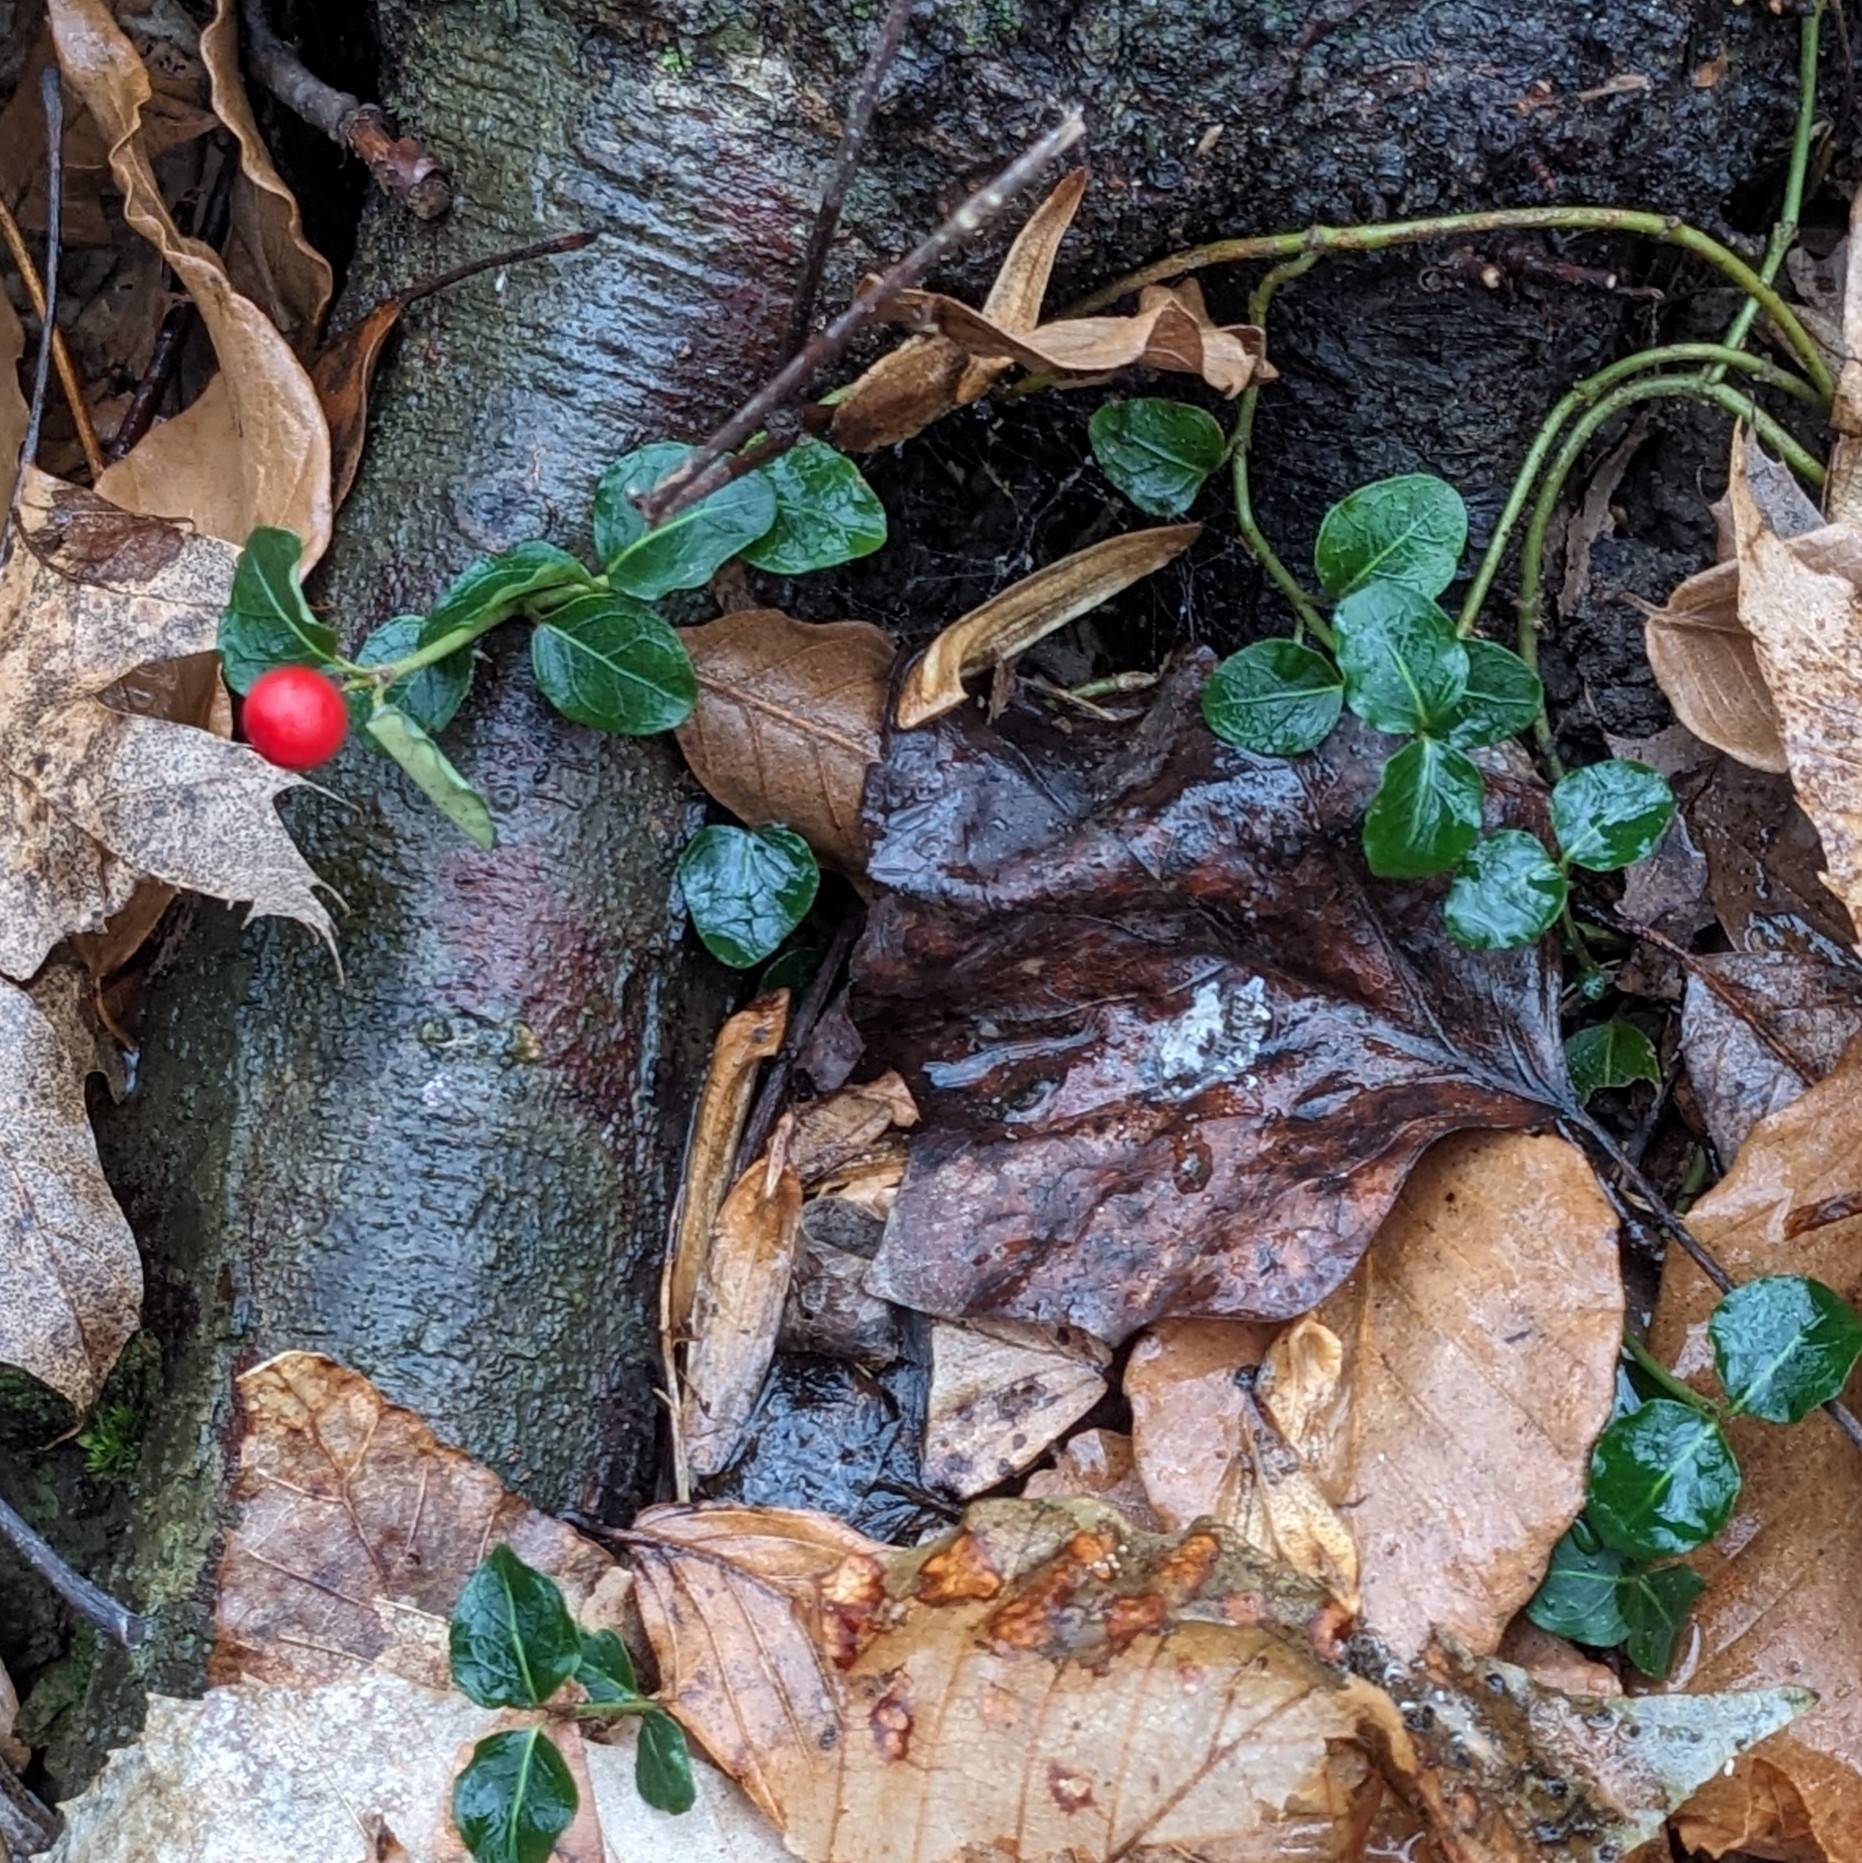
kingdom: Plantae
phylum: Tracheophyta
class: Magnoliopsida
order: Gentianales
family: Rubiaceae
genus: Mitchella
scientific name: Mitchella repens
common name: Partridge-berry
